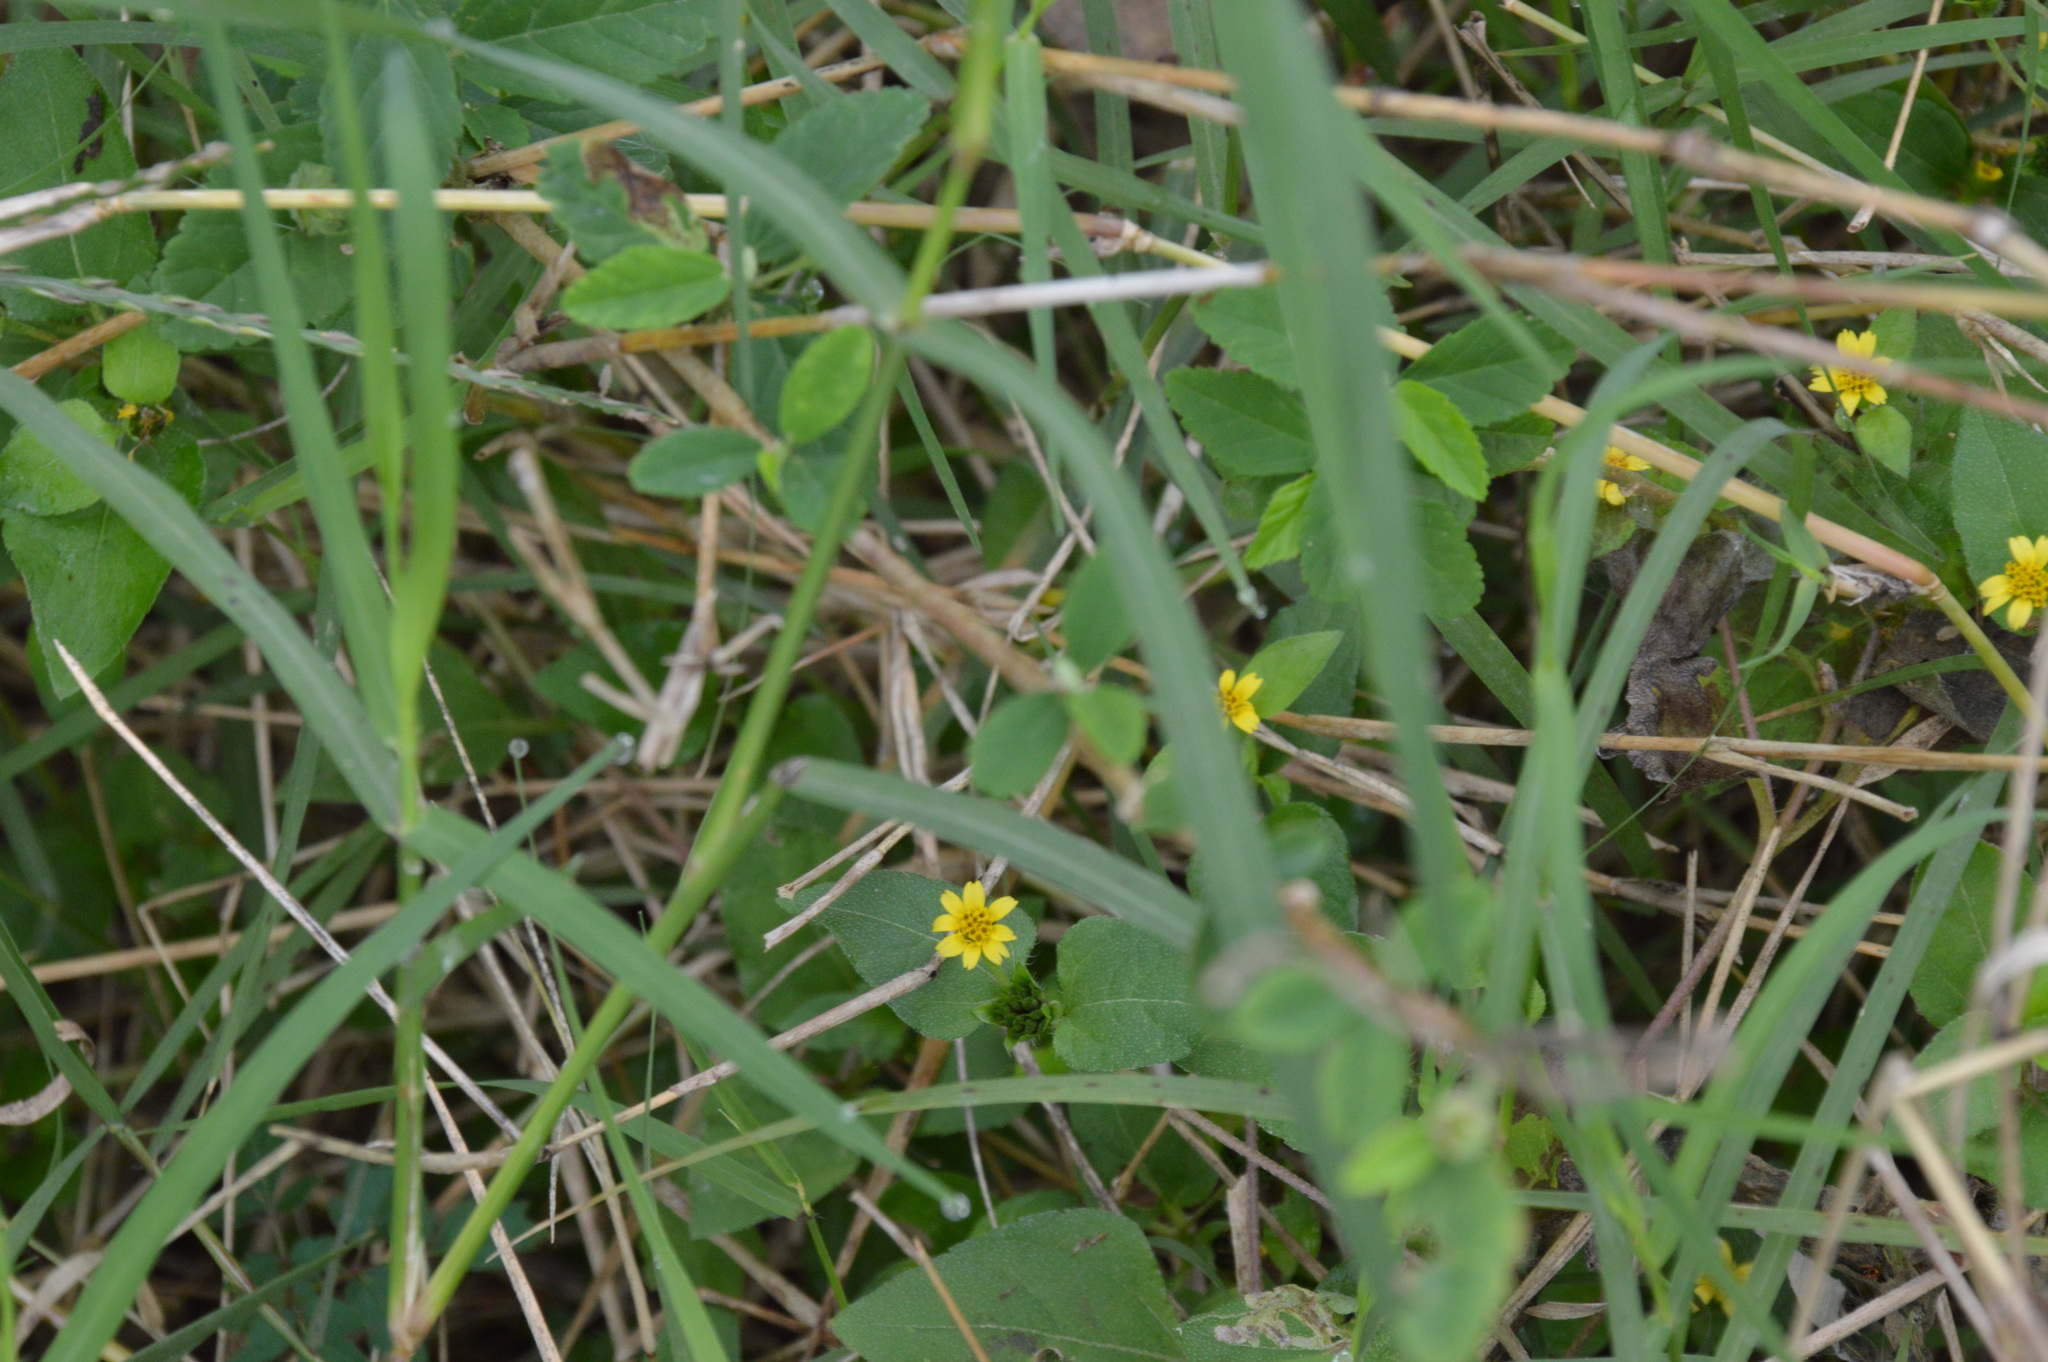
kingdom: Plantae
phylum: Tracheophyta
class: Magnoliopsida
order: Asterales
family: Asteraceae
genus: Calyptocarpus
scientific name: Calyptocarpus vialis
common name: Straggler daisy
